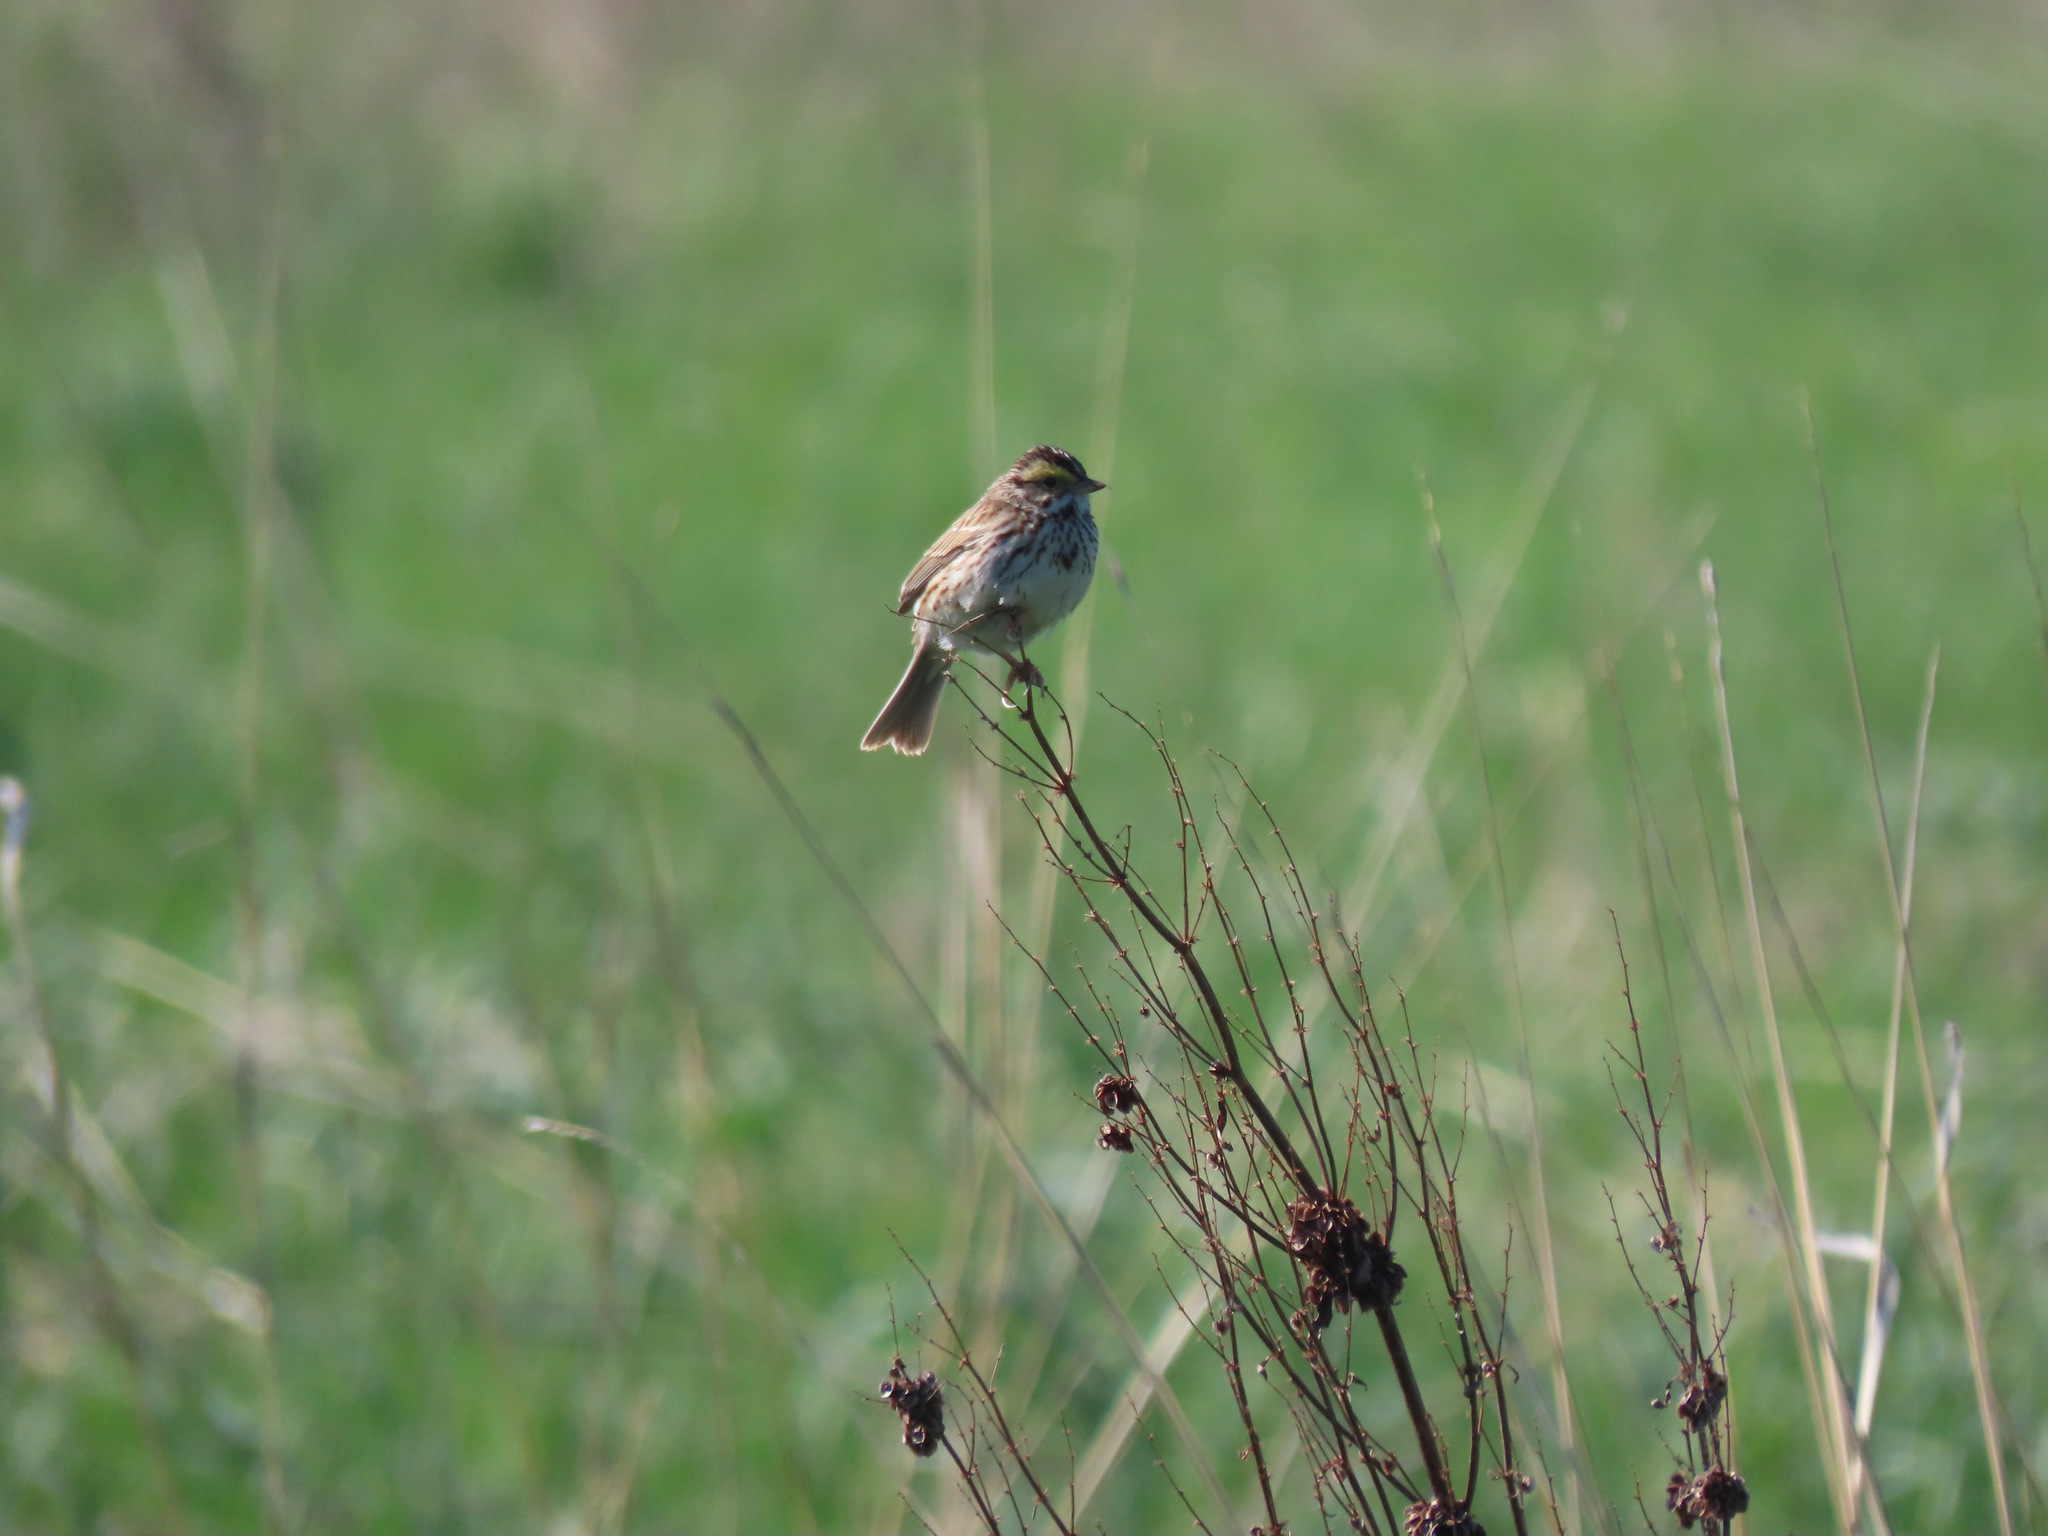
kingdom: Animalia
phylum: Chordata
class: Aves
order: Passeriformes
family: Passerellidae
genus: Passerculus
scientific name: Passerculus sandwichensis
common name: Savannah sparrow
